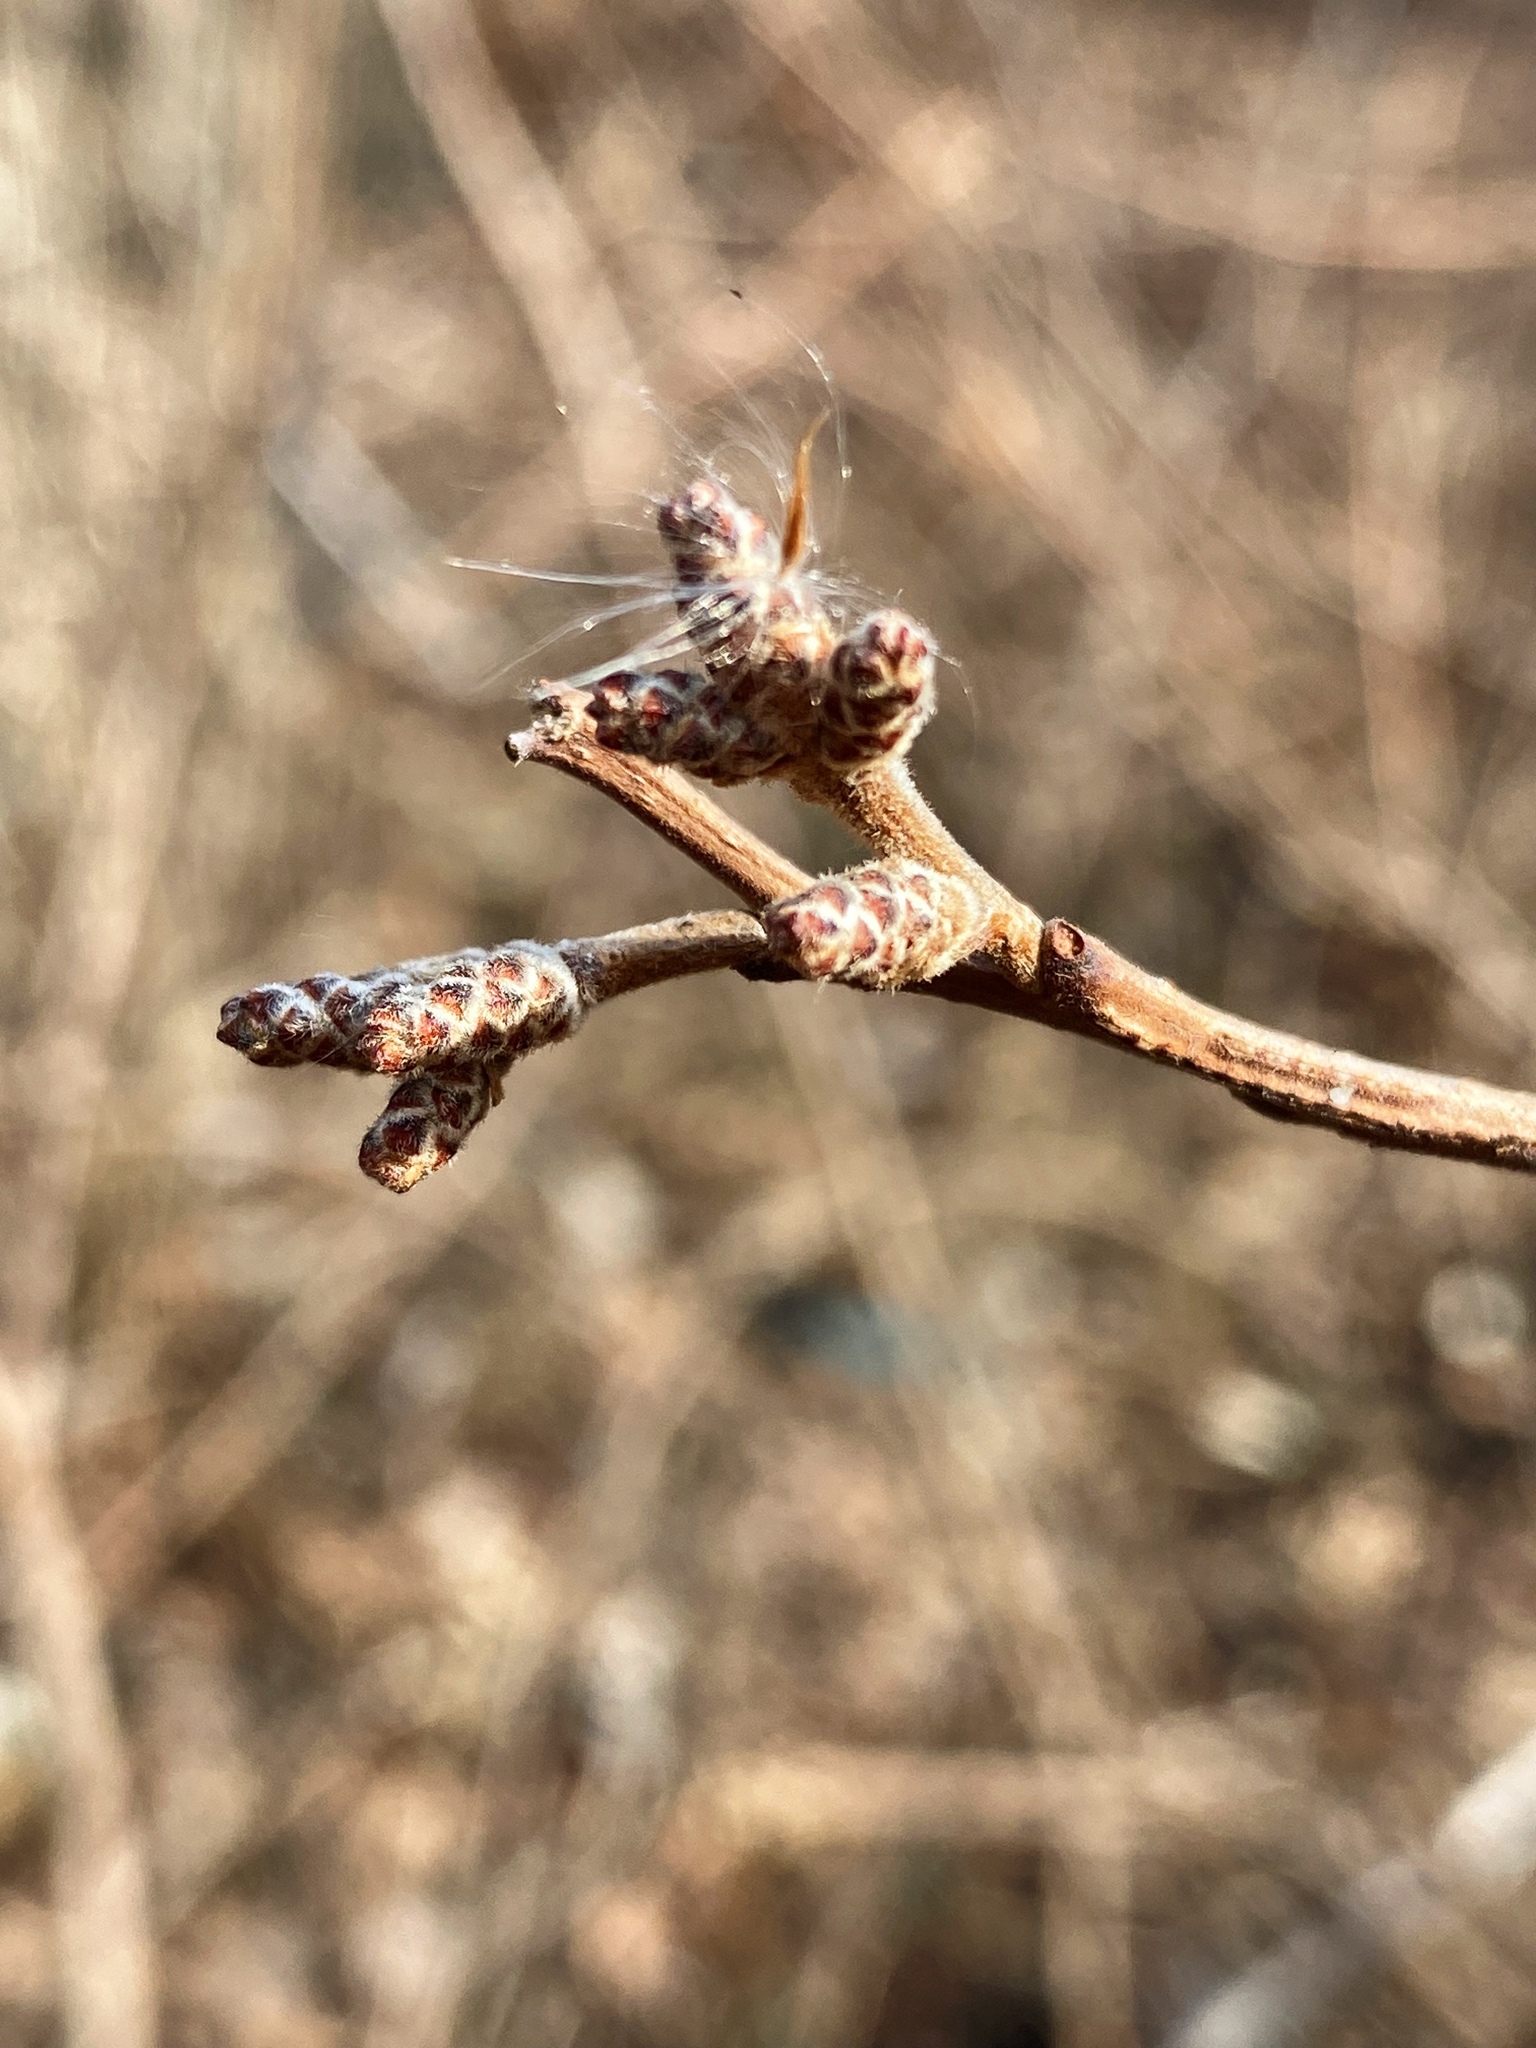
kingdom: Plantae
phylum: Tracheophyta
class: Magnoliopsida
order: Sapindales
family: Anacardiaceae
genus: Rhus
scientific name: Rhus aromatica
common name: Aromatic sumac
